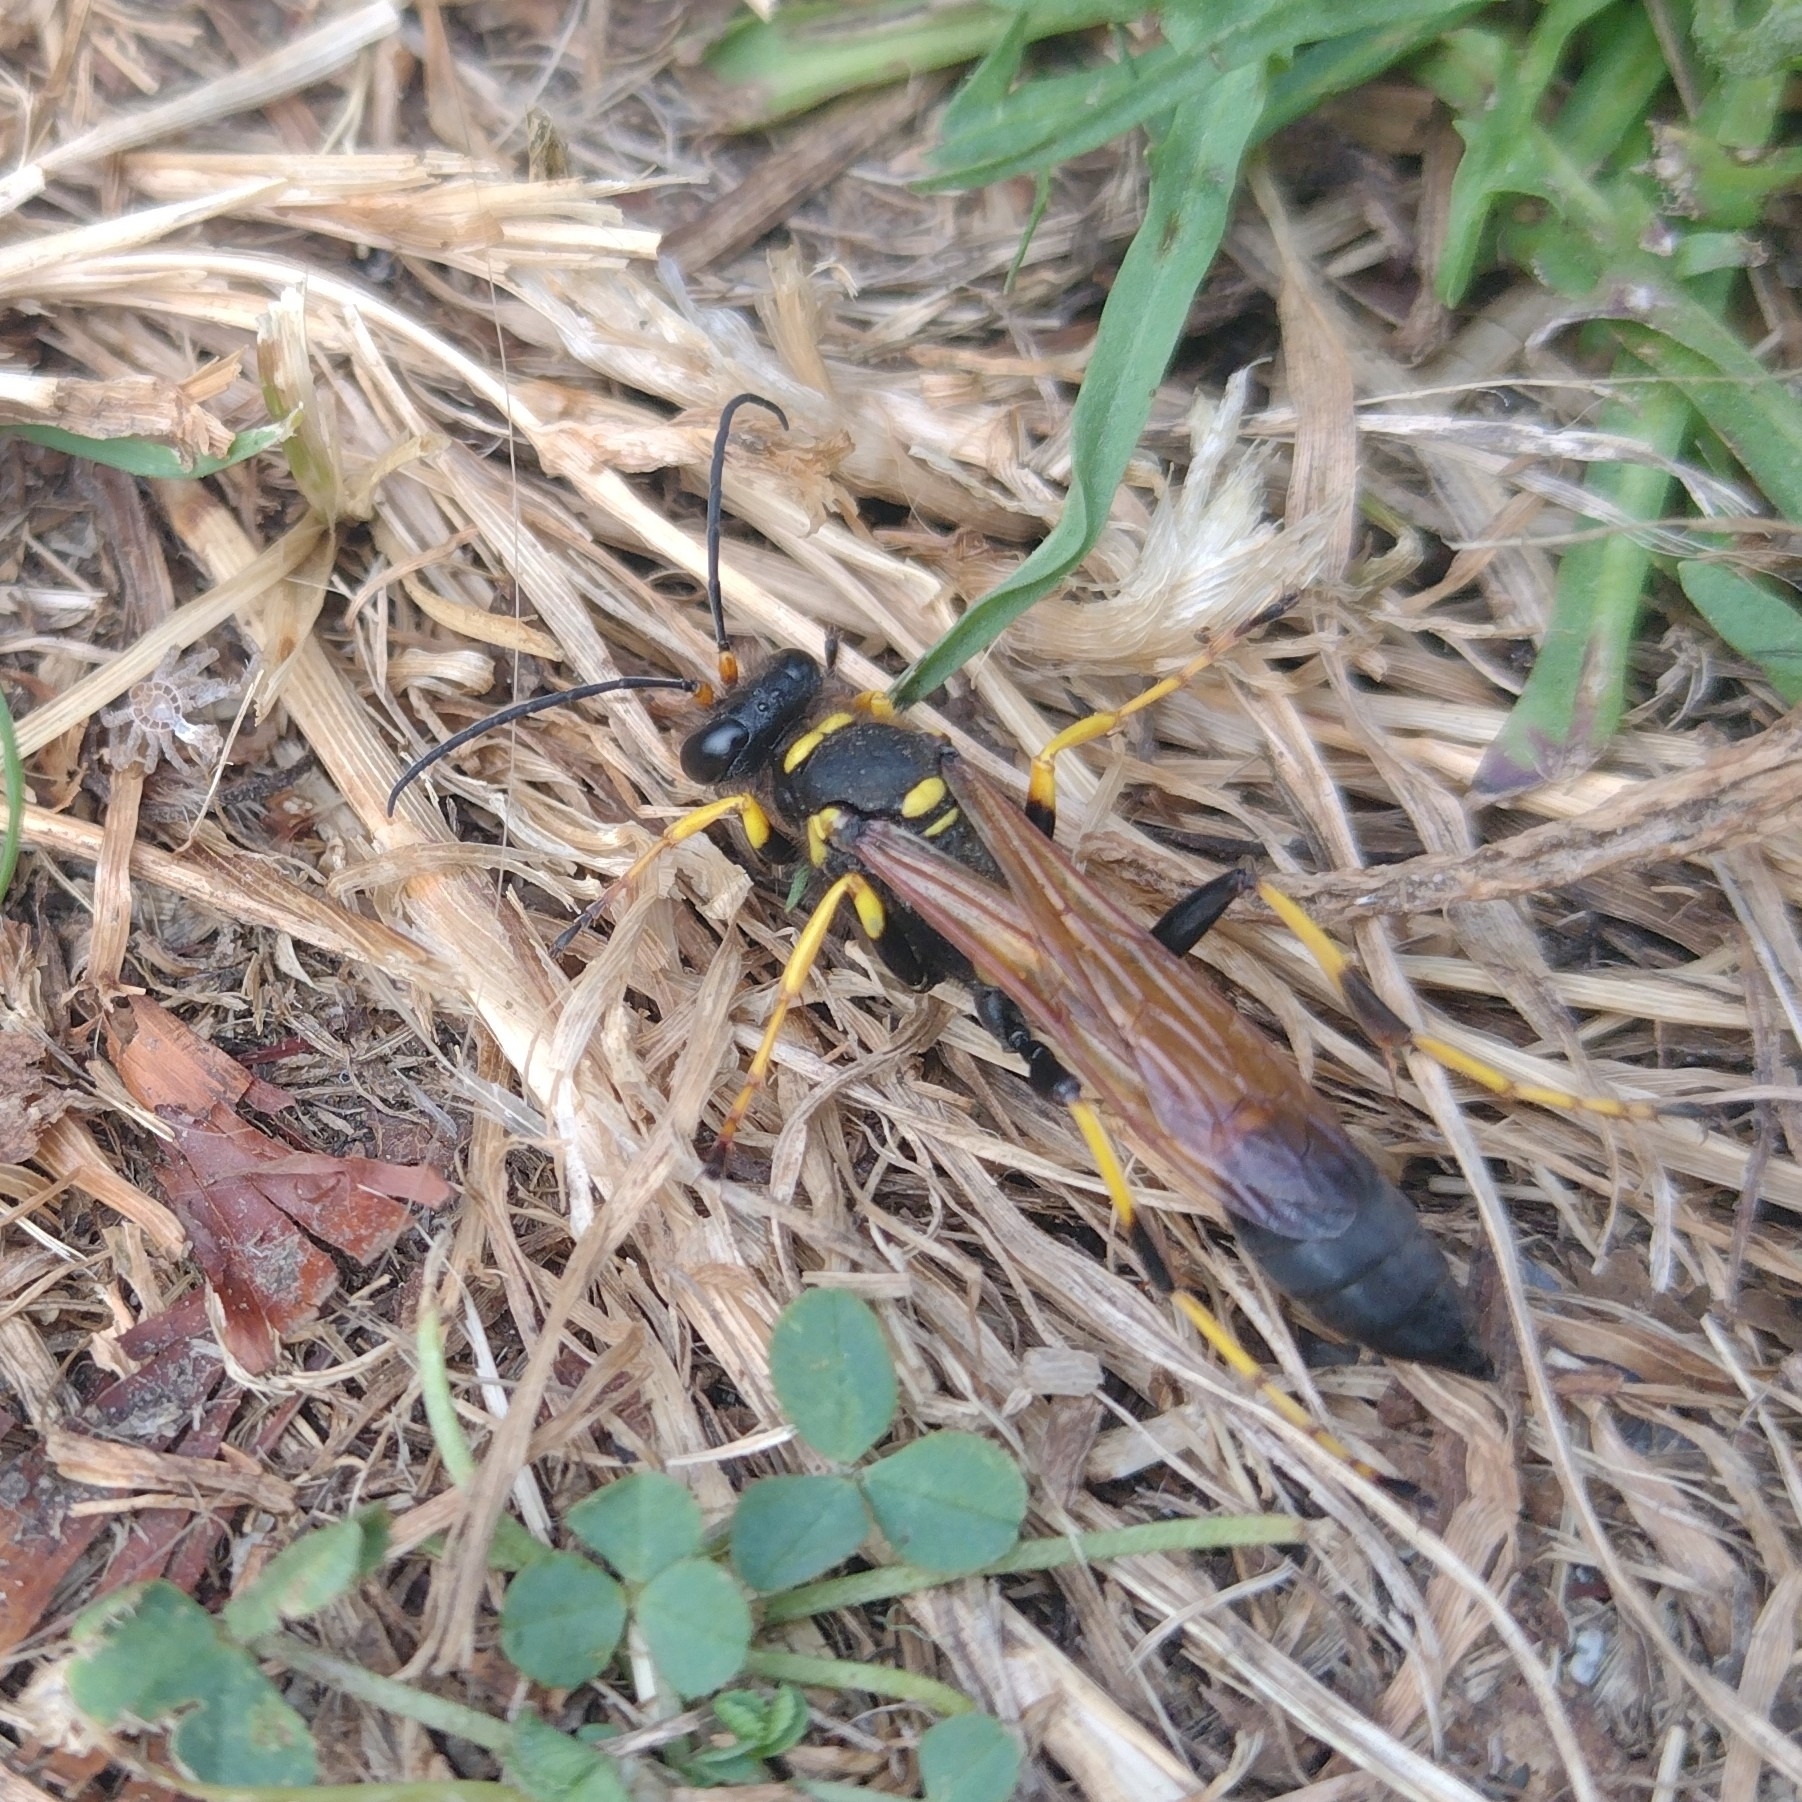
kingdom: Animalia
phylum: Arthropoda
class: Insecta
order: Hymenoptera
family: Sphecidae
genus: Sceliphron
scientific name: Sceliphron caementarium
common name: Mud dauber
